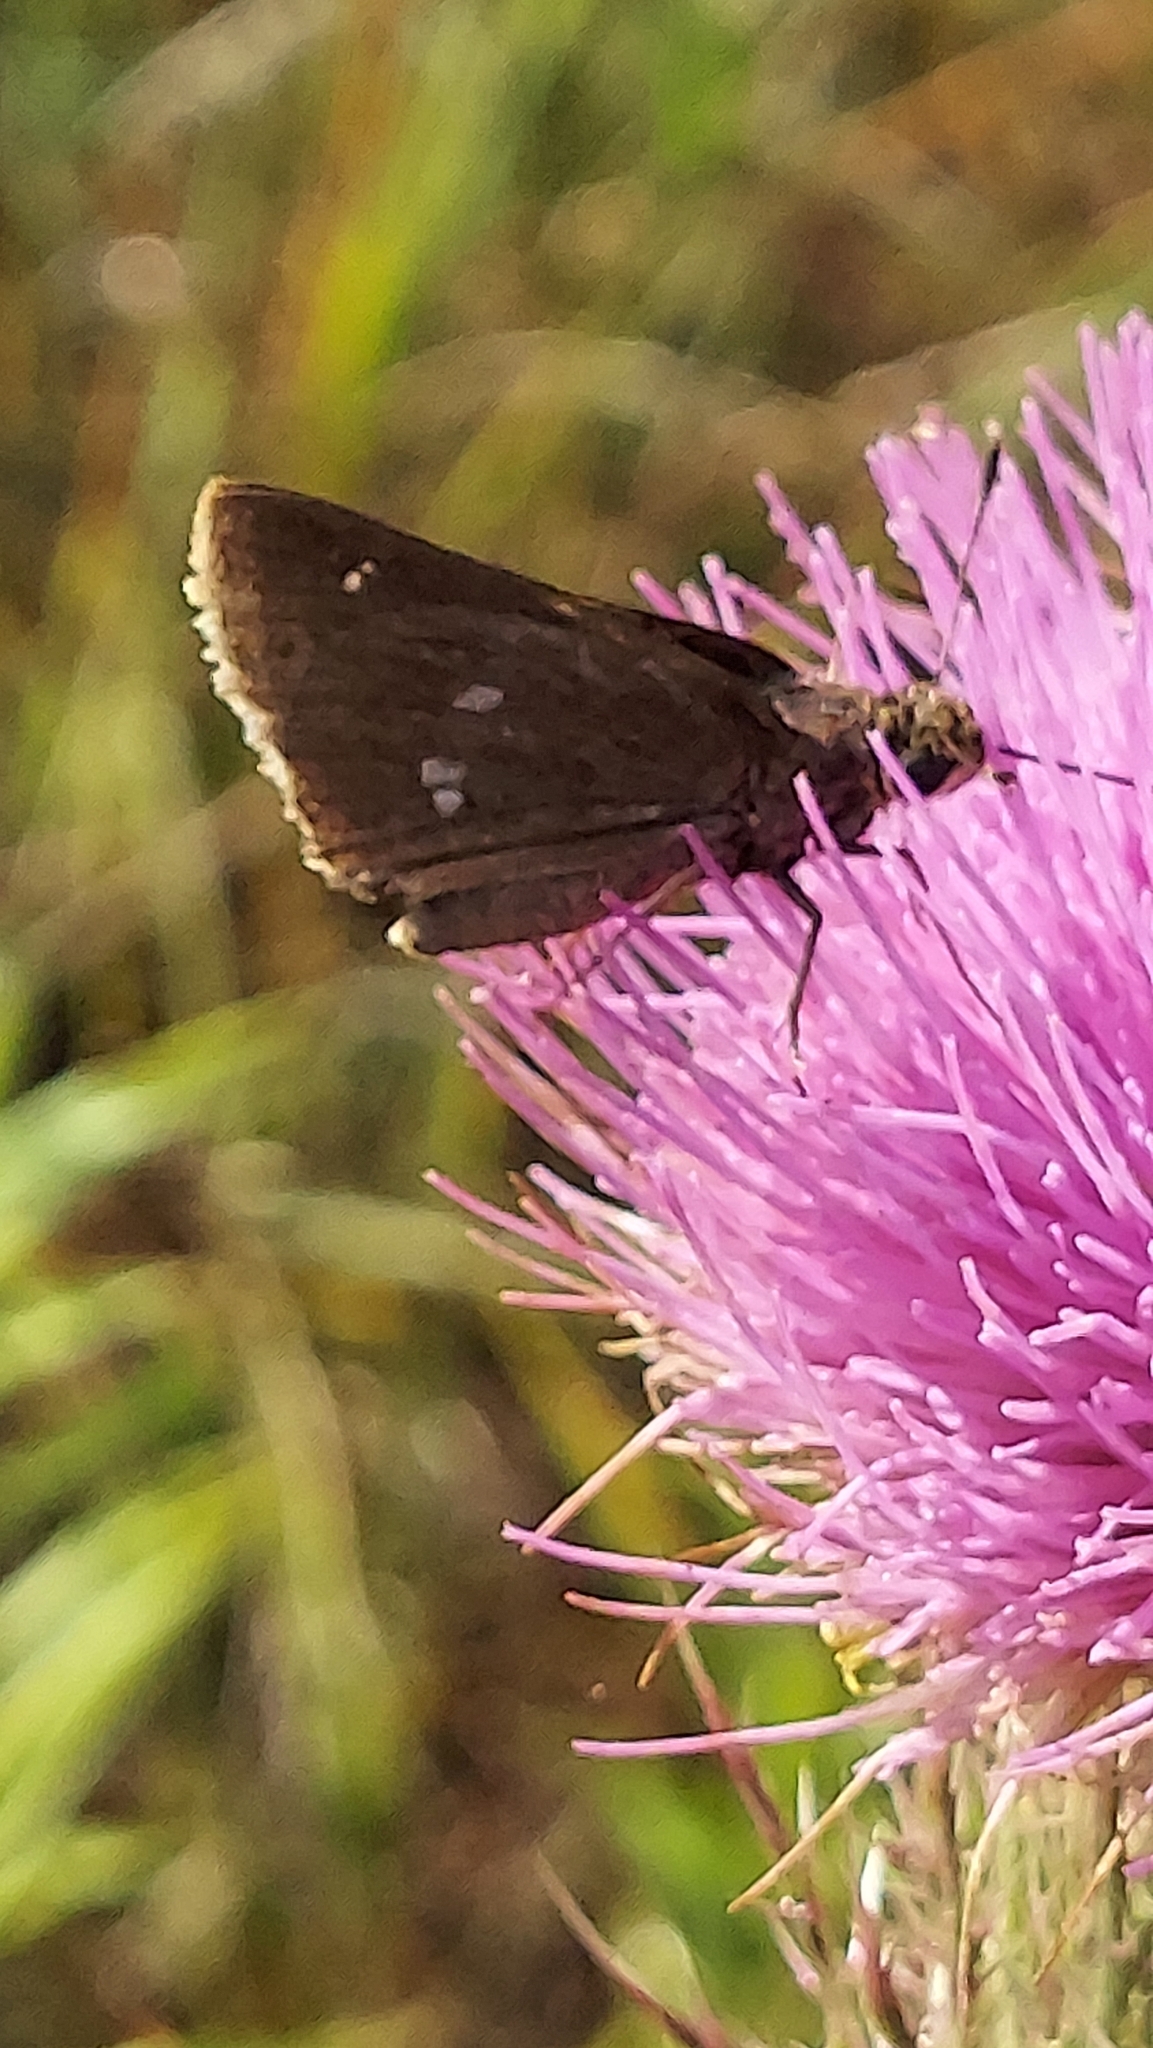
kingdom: Animalia
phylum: Arthropoda
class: Insecta
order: Lepidoptera
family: Hesperiidae
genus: Oligoria
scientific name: Oligoria maculata
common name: Twin-spot skipper
